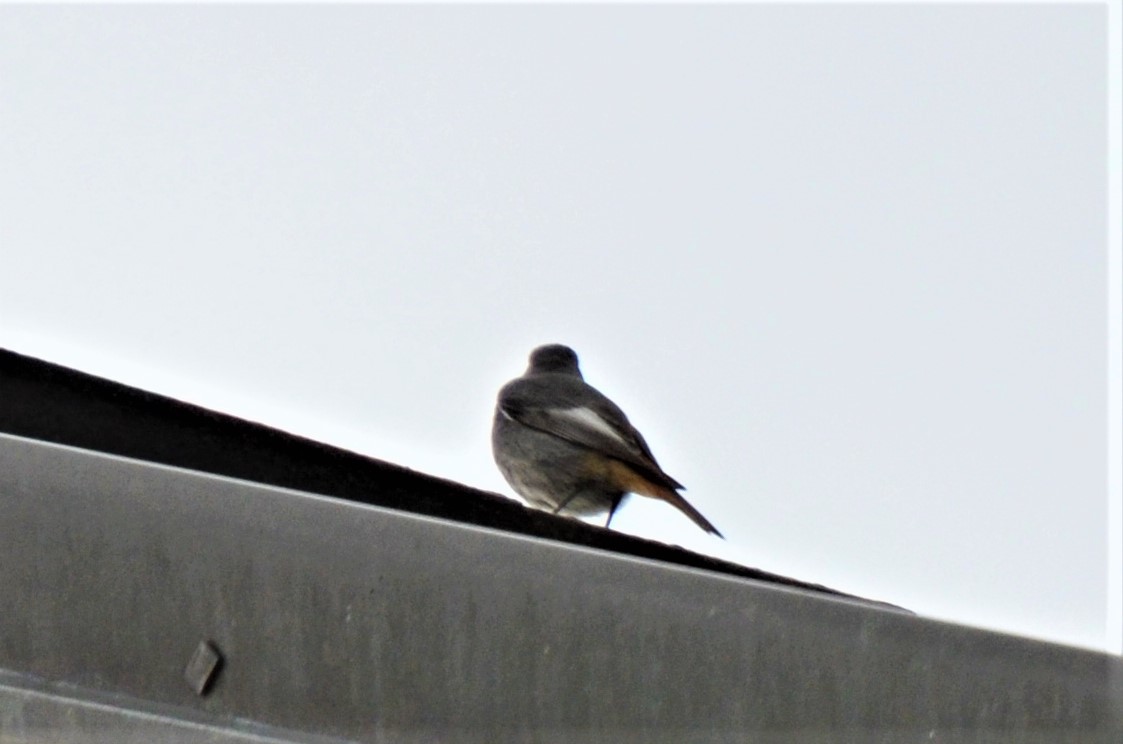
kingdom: Animalia
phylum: Chordata
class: Aves
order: Passeriformes
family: Muscicapidae
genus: Phoenicurus
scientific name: Phoenicurus ochruros
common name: Black redstart
